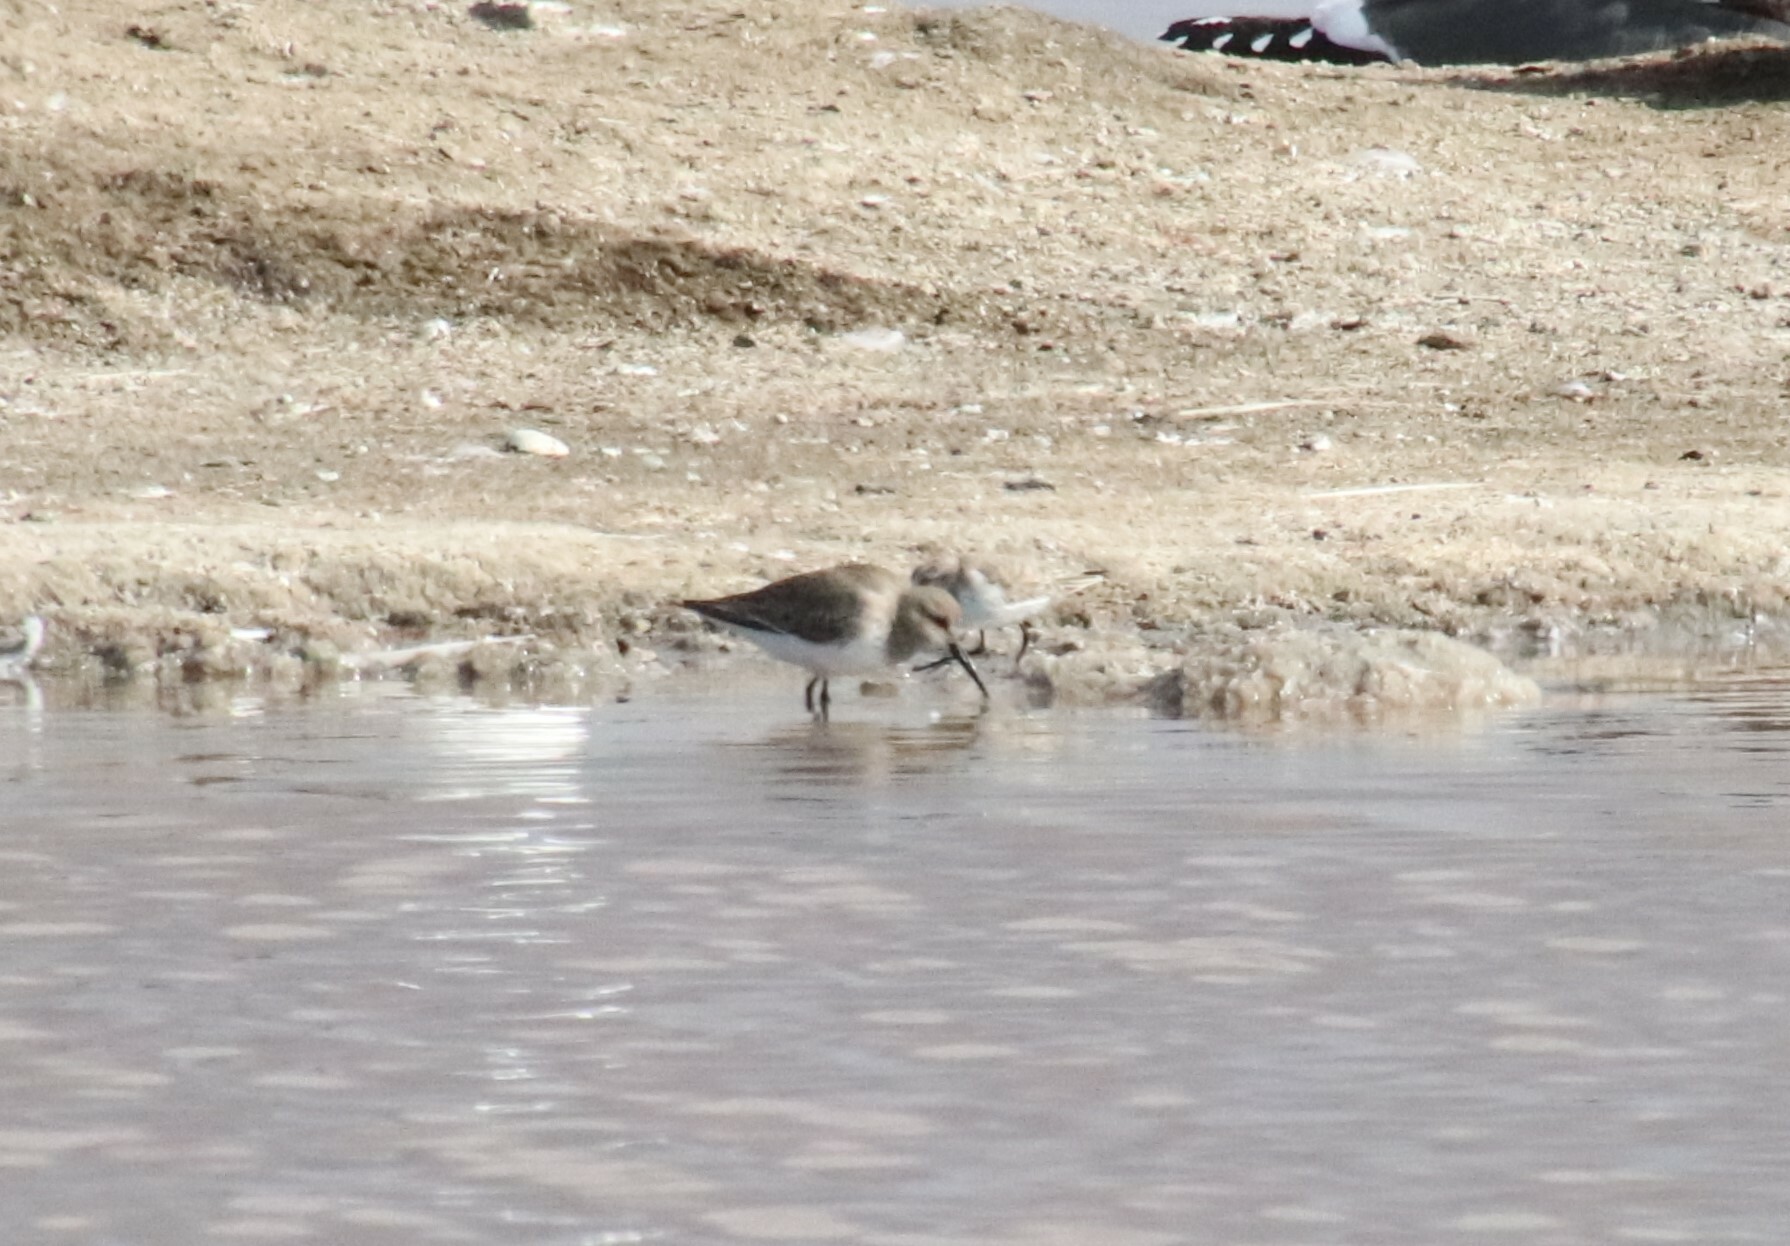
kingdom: Animalia
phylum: Chordata
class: Aves
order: Charadriiformes
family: Scolopacidae
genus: Calidris
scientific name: Calidris alpina
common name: Dunlin
